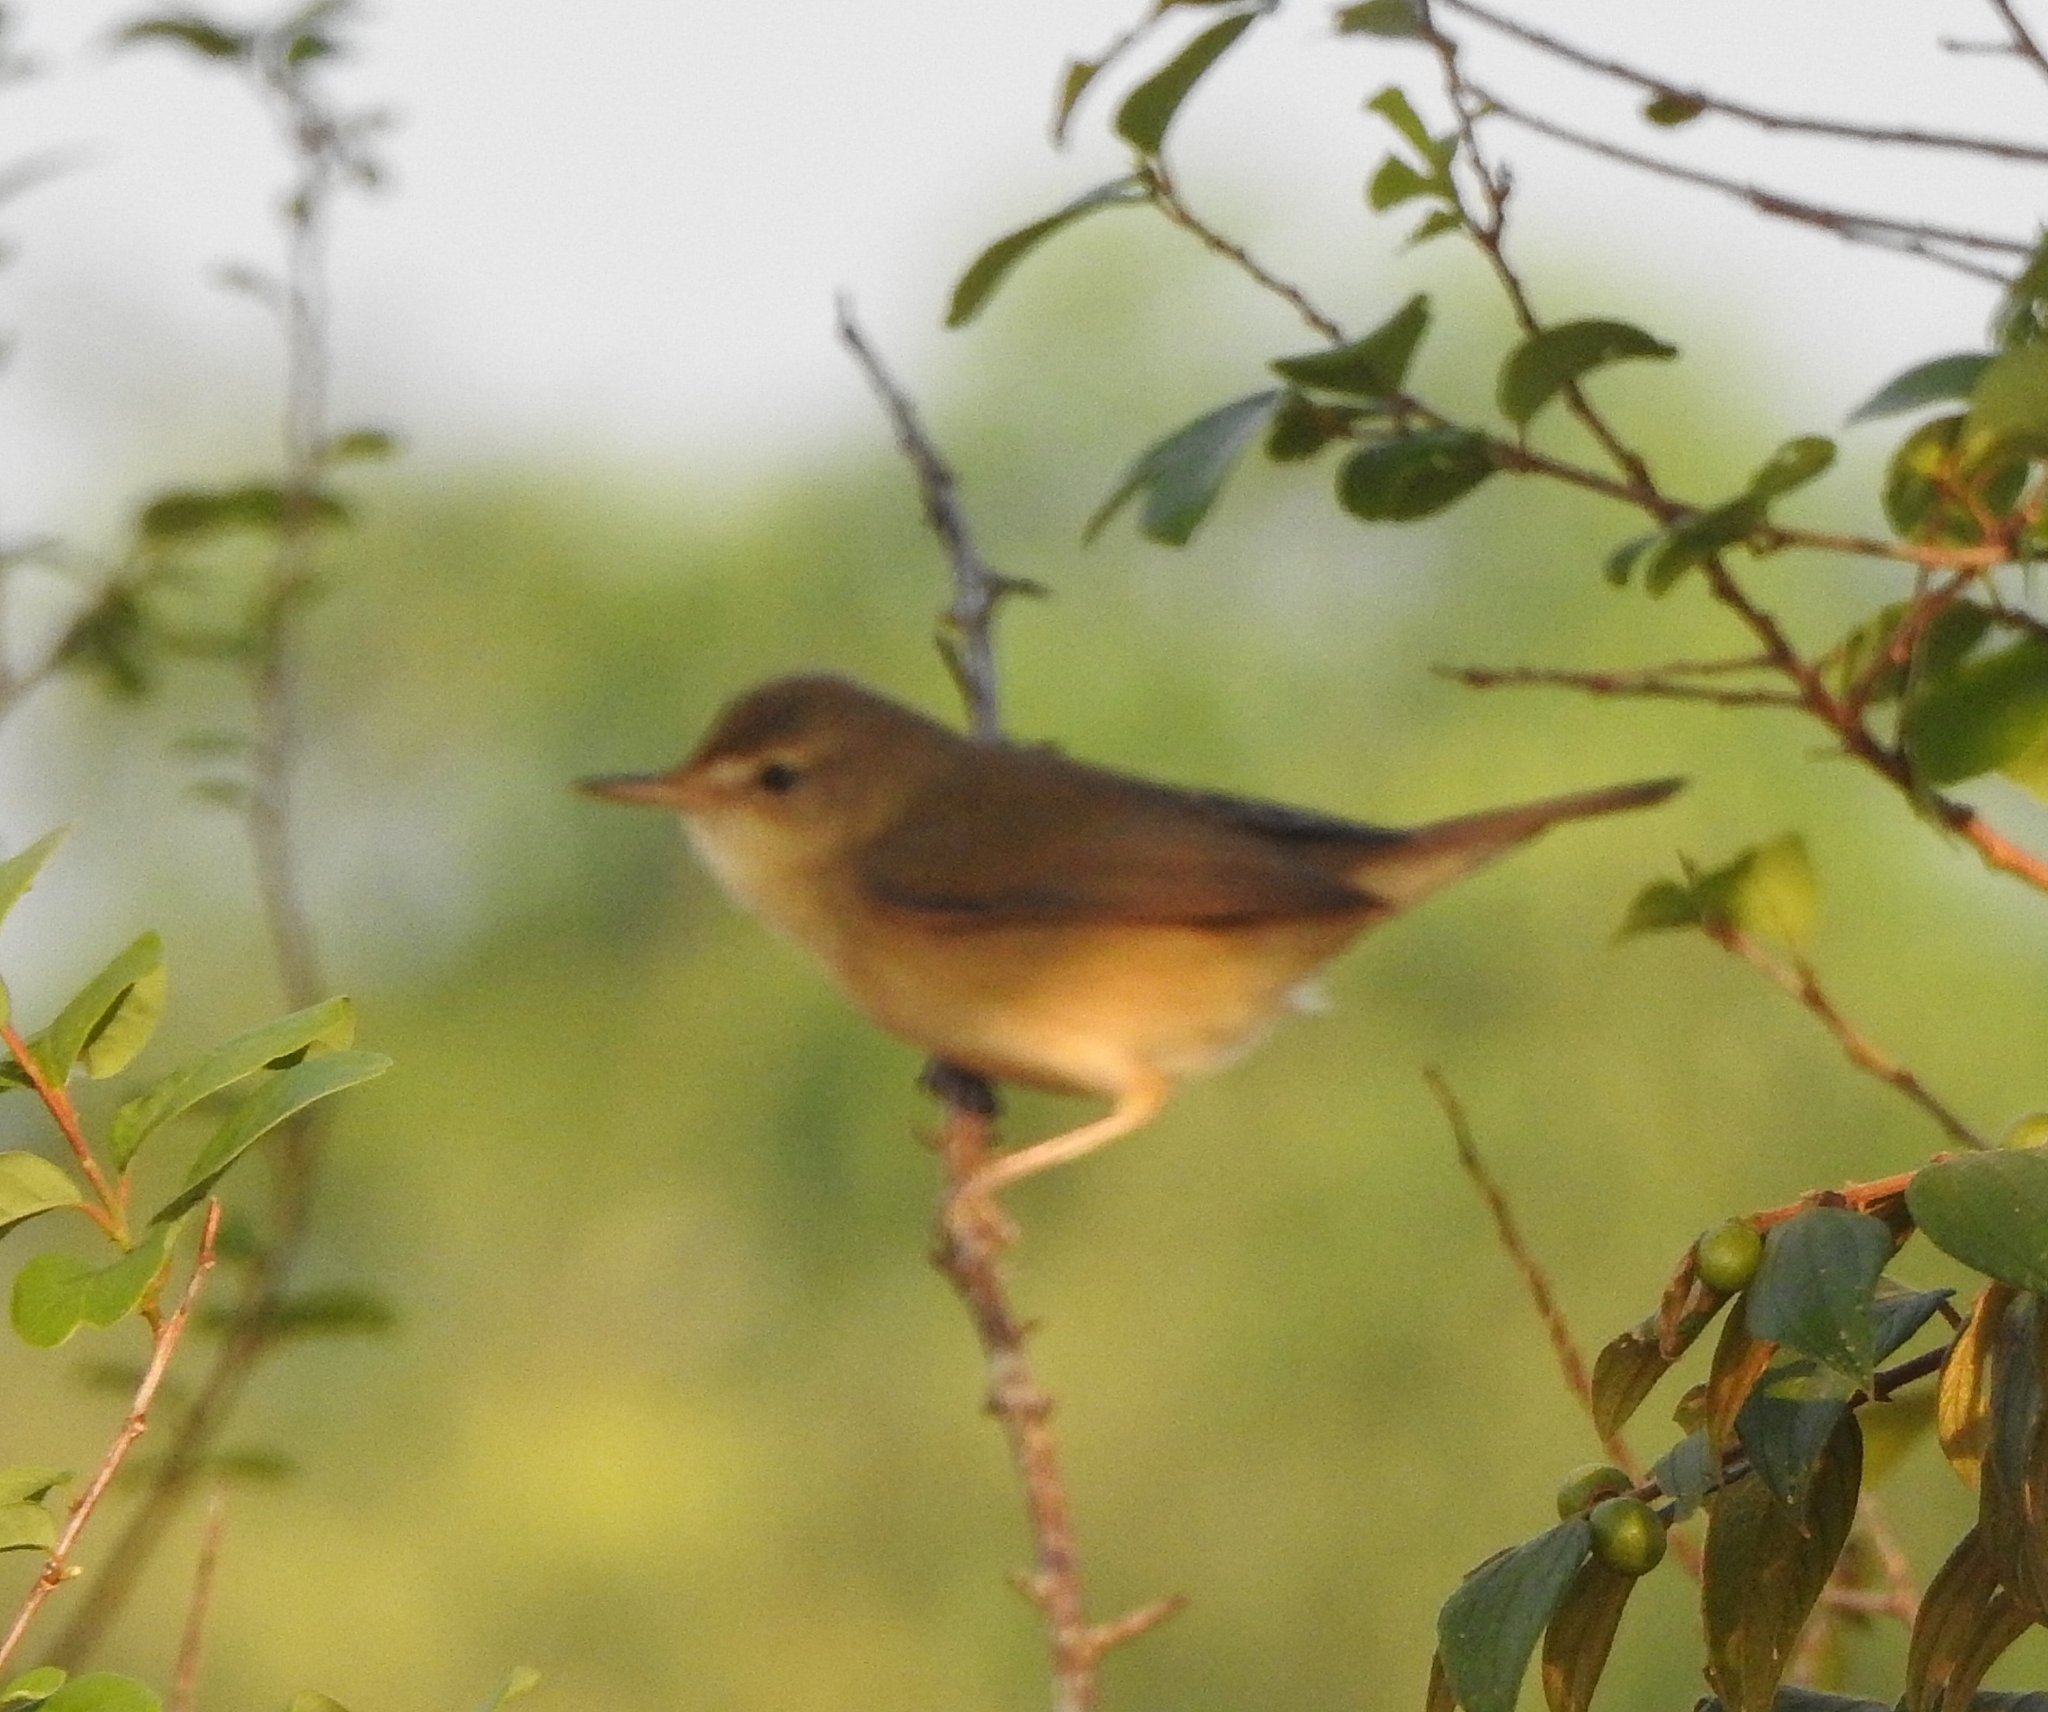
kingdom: Animalia
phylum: Chordata
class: Aves
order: Passeriformes
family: Acrocephalidae
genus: Acrocephalus
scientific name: Acrocephalus dumetorum
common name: Blyth's reed warbler
